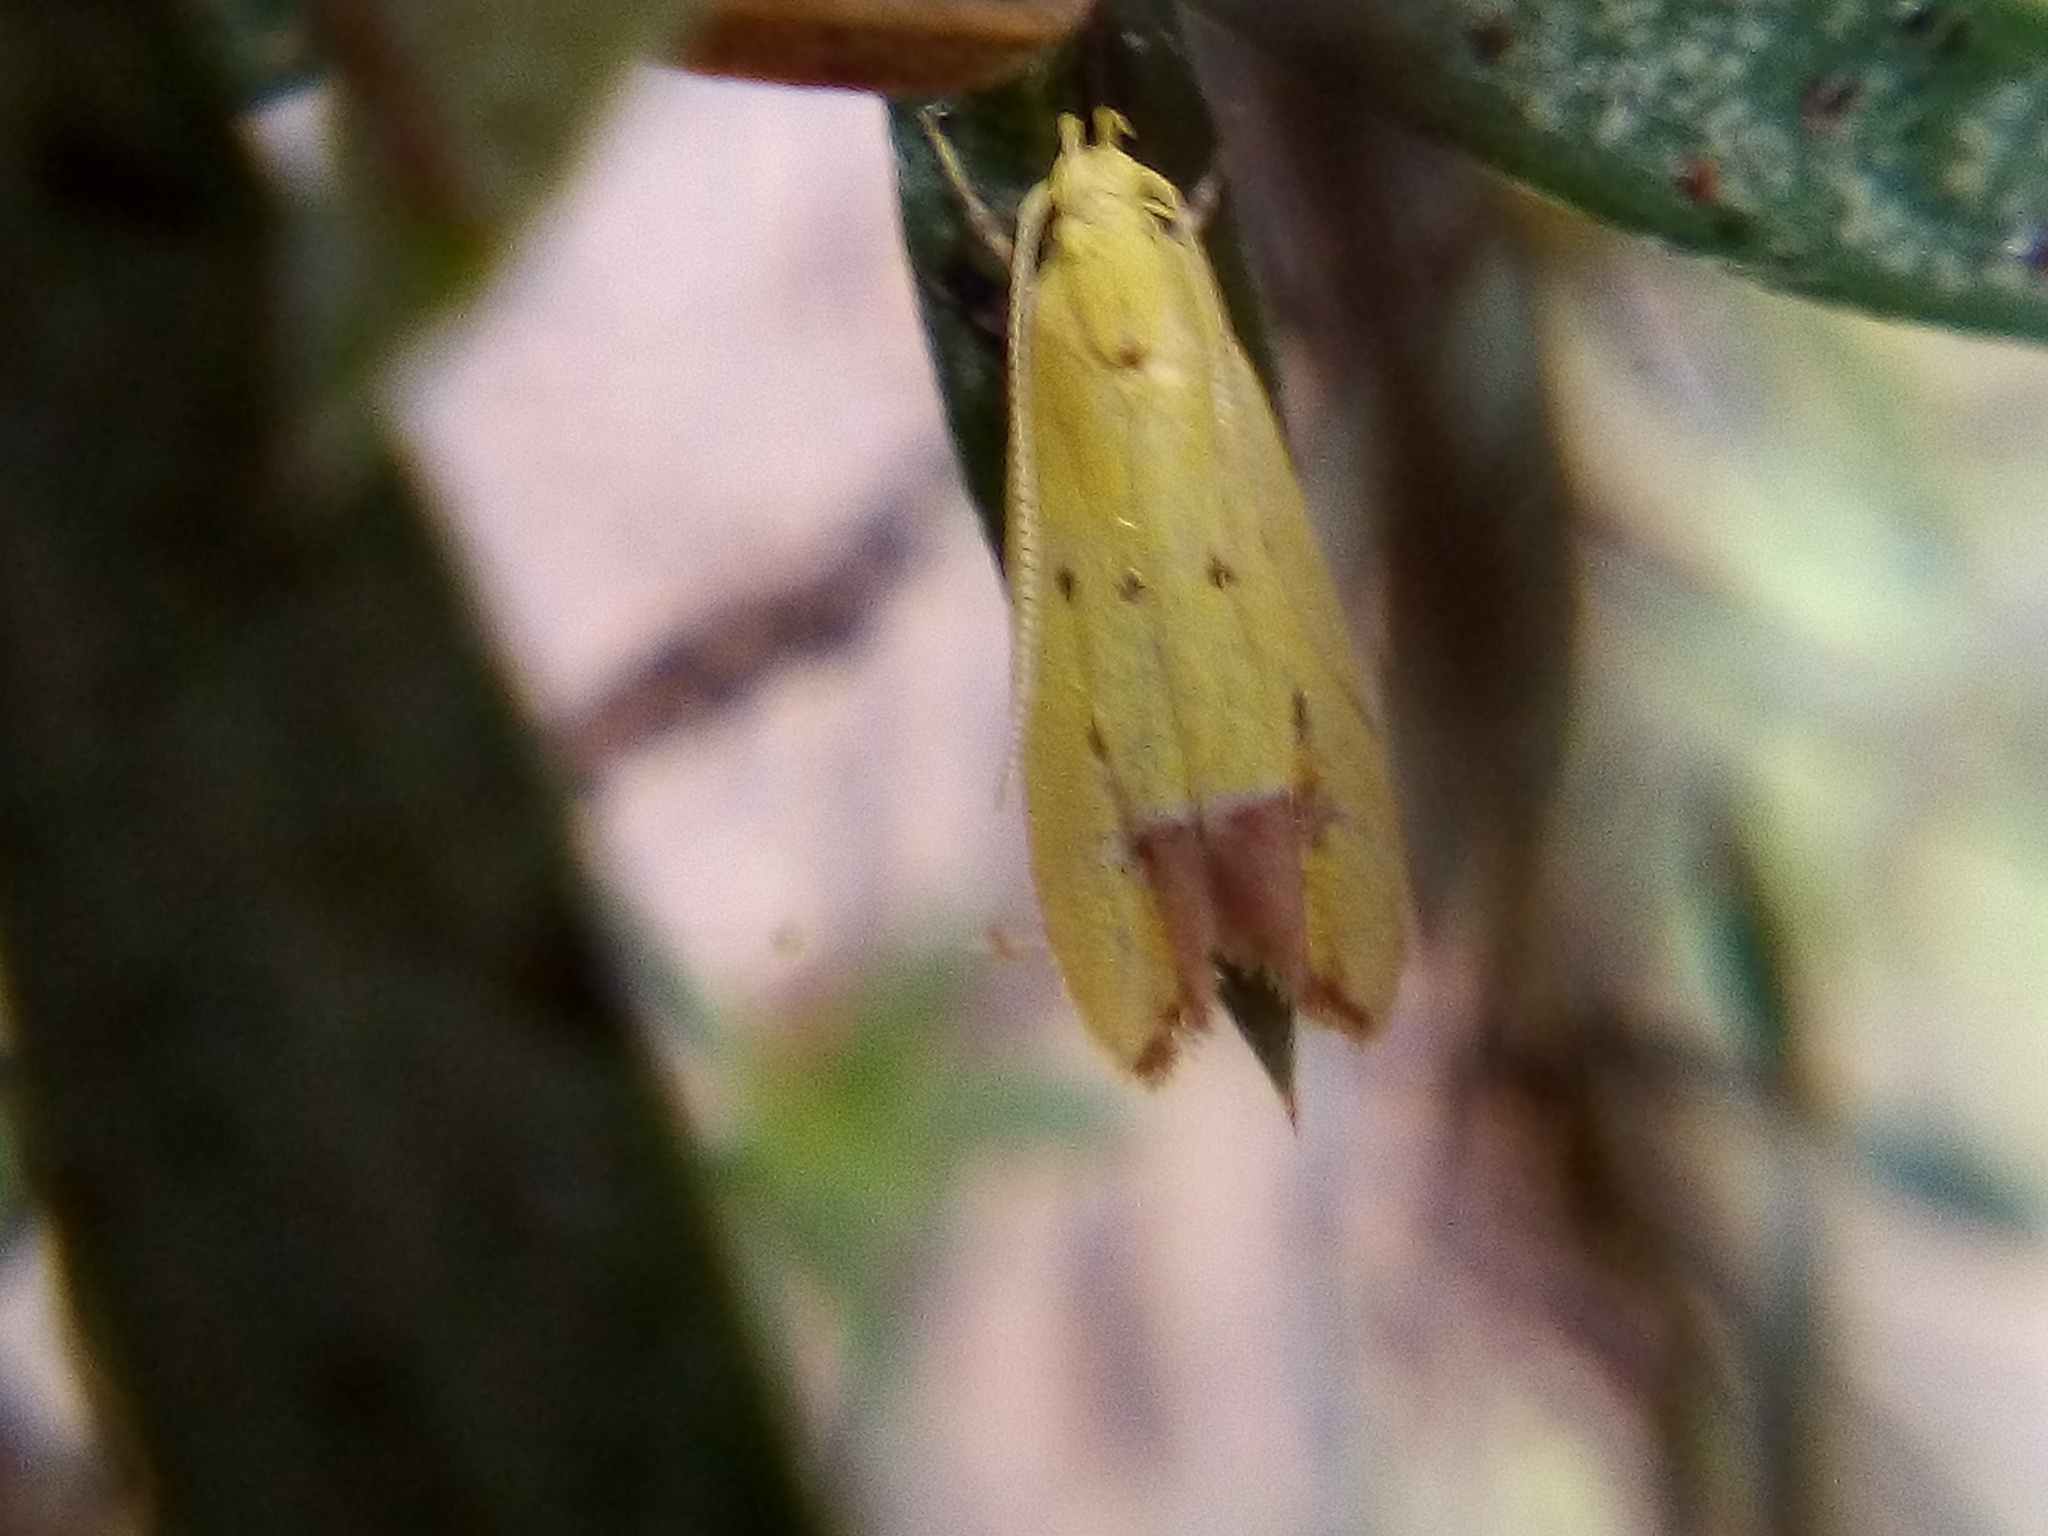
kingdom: Animalia
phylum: Arthropoda
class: Insecta
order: Lepidoptera
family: Oecophoridae
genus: Gymnobathra
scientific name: Gymnobathra flavidella
